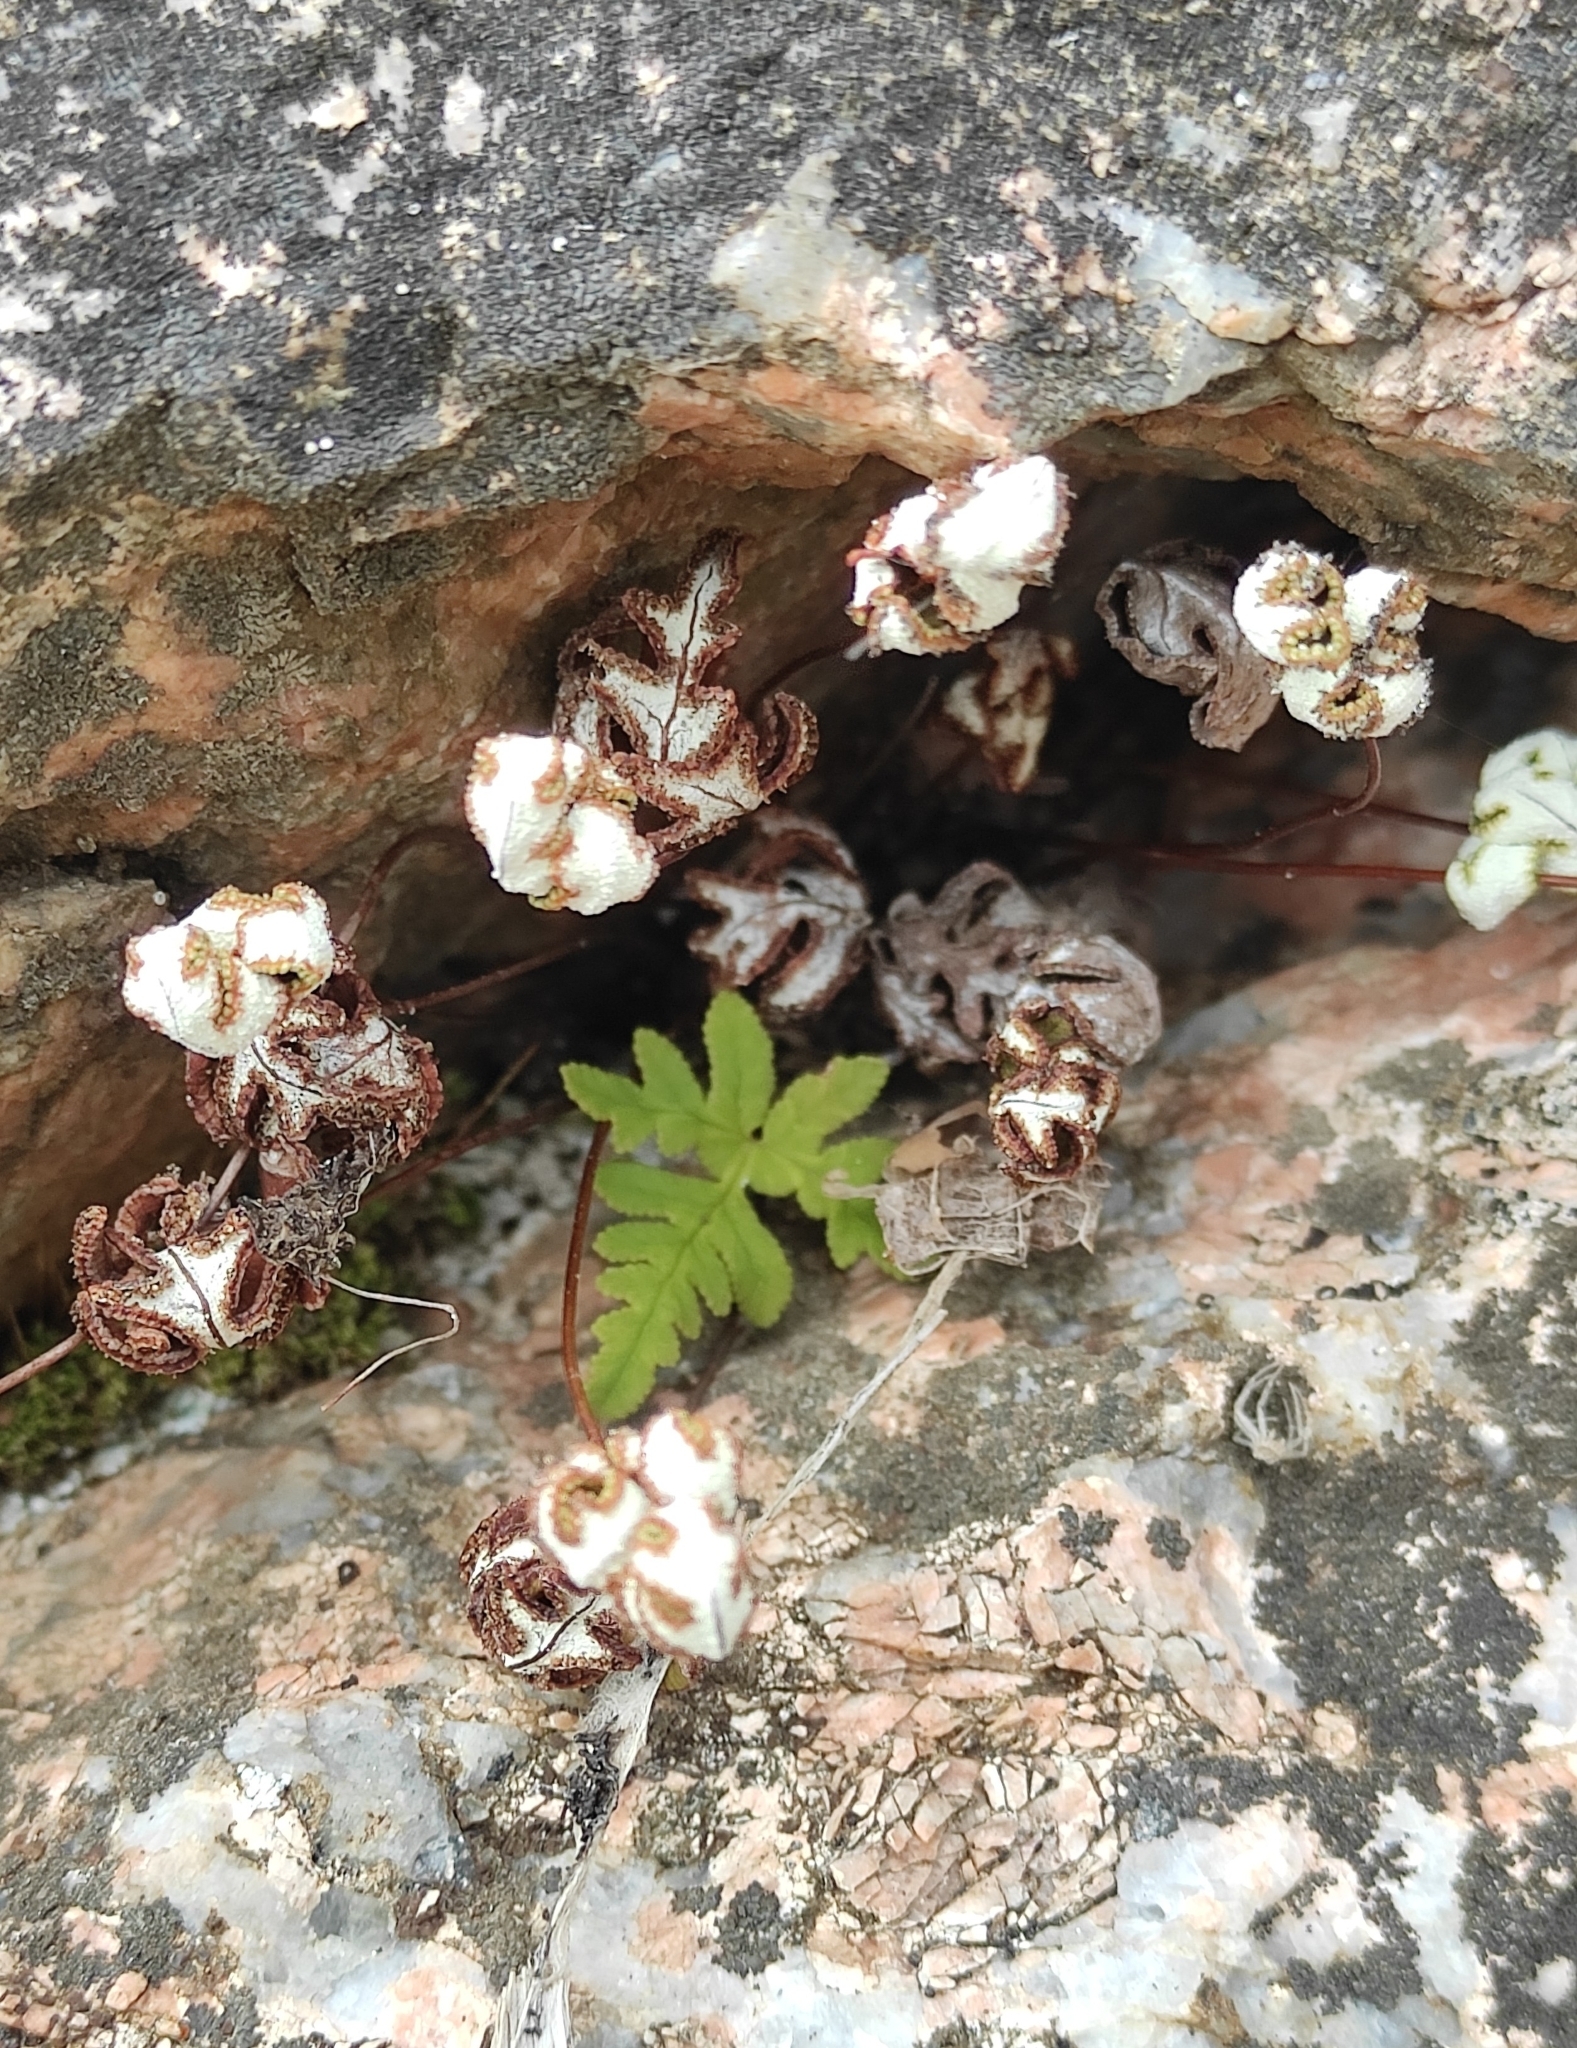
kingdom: Plantae
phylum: Tracheophyta
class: Polypodiopsida
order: Polypodiales
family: Pteridaceae
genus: Aleuritopteris
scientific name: Aleuritopteris argentea
